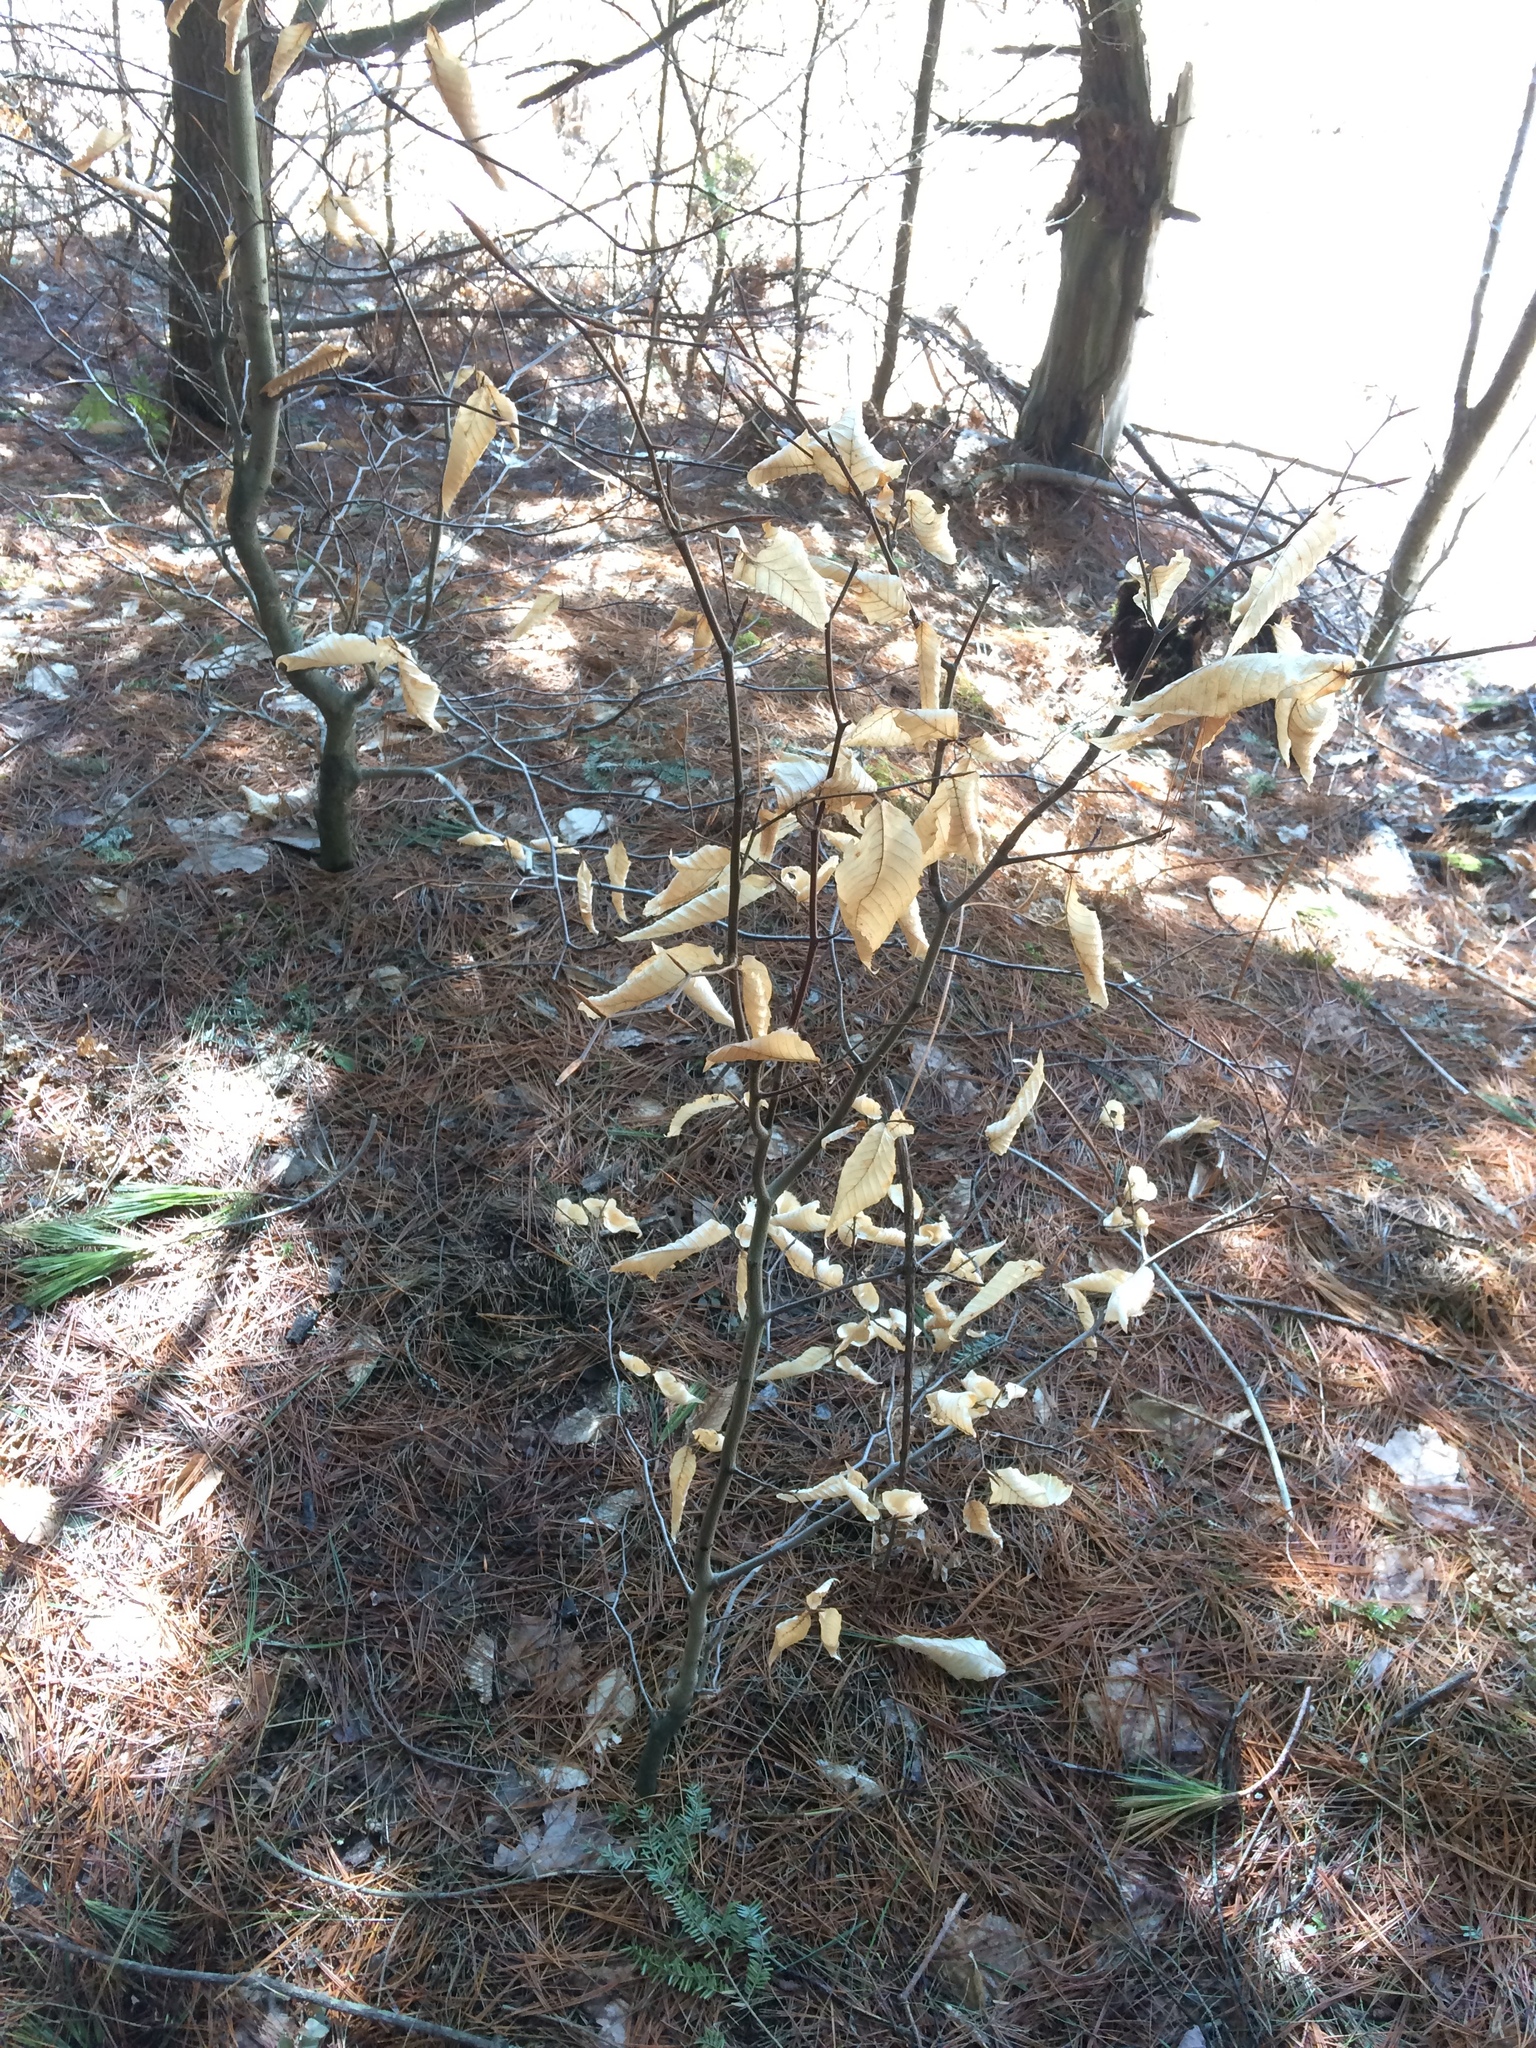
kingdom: Plantae
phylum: Tracheophyta
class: Magnoliopsida
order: Fagales
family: Fagaceae
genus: Fagus
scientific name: Fagus grandifolia
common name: American beech
